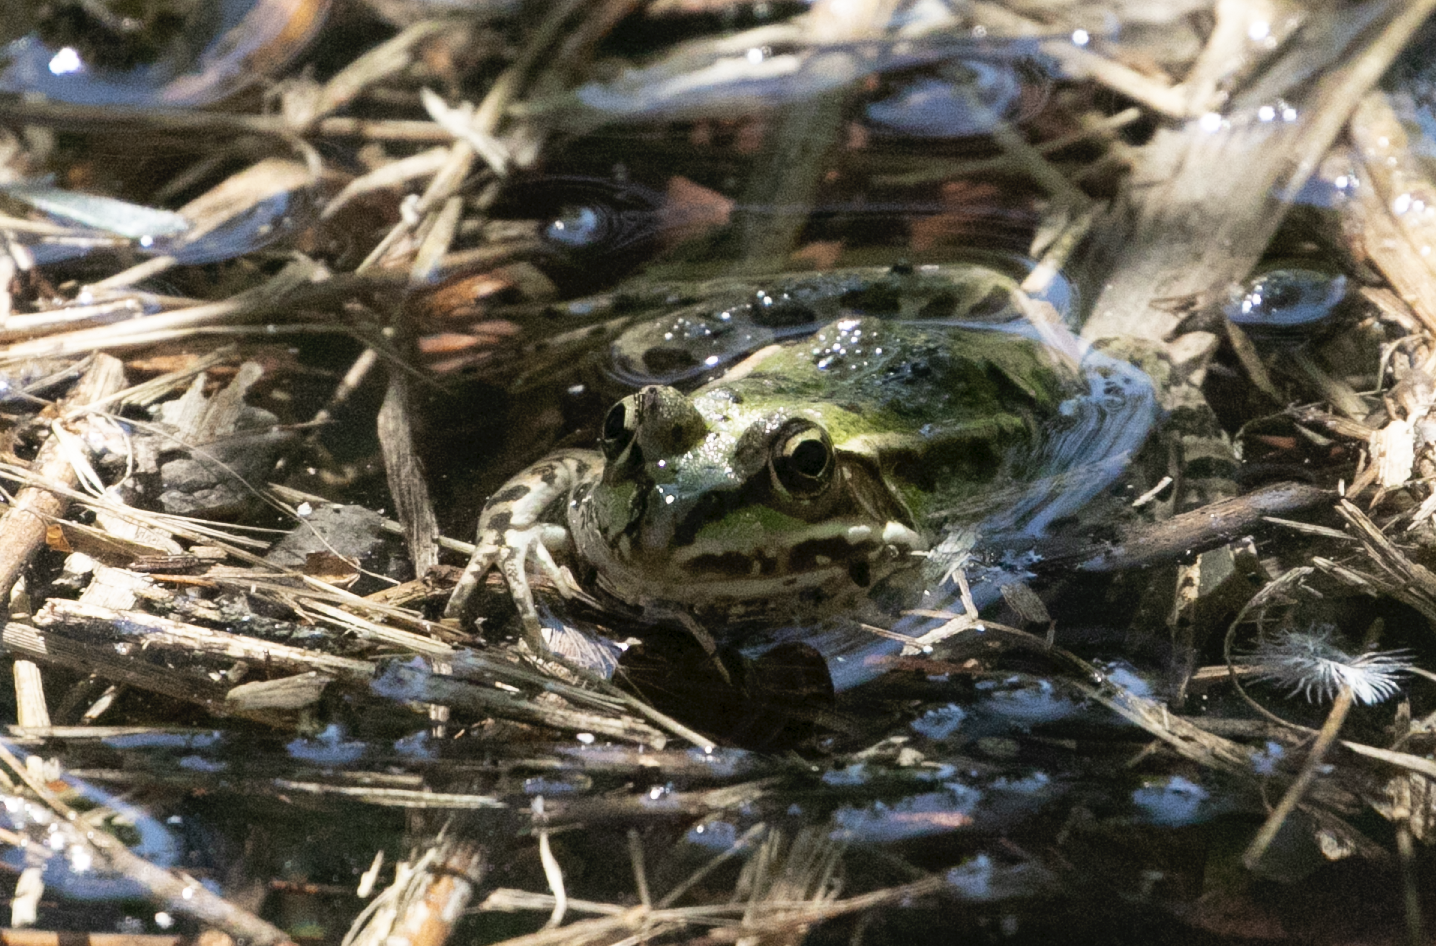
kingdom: Animalia
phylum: Chordata
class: Amphibia
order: Anura
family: Ranidae
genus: Pelophylax
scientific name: Pelophylax
